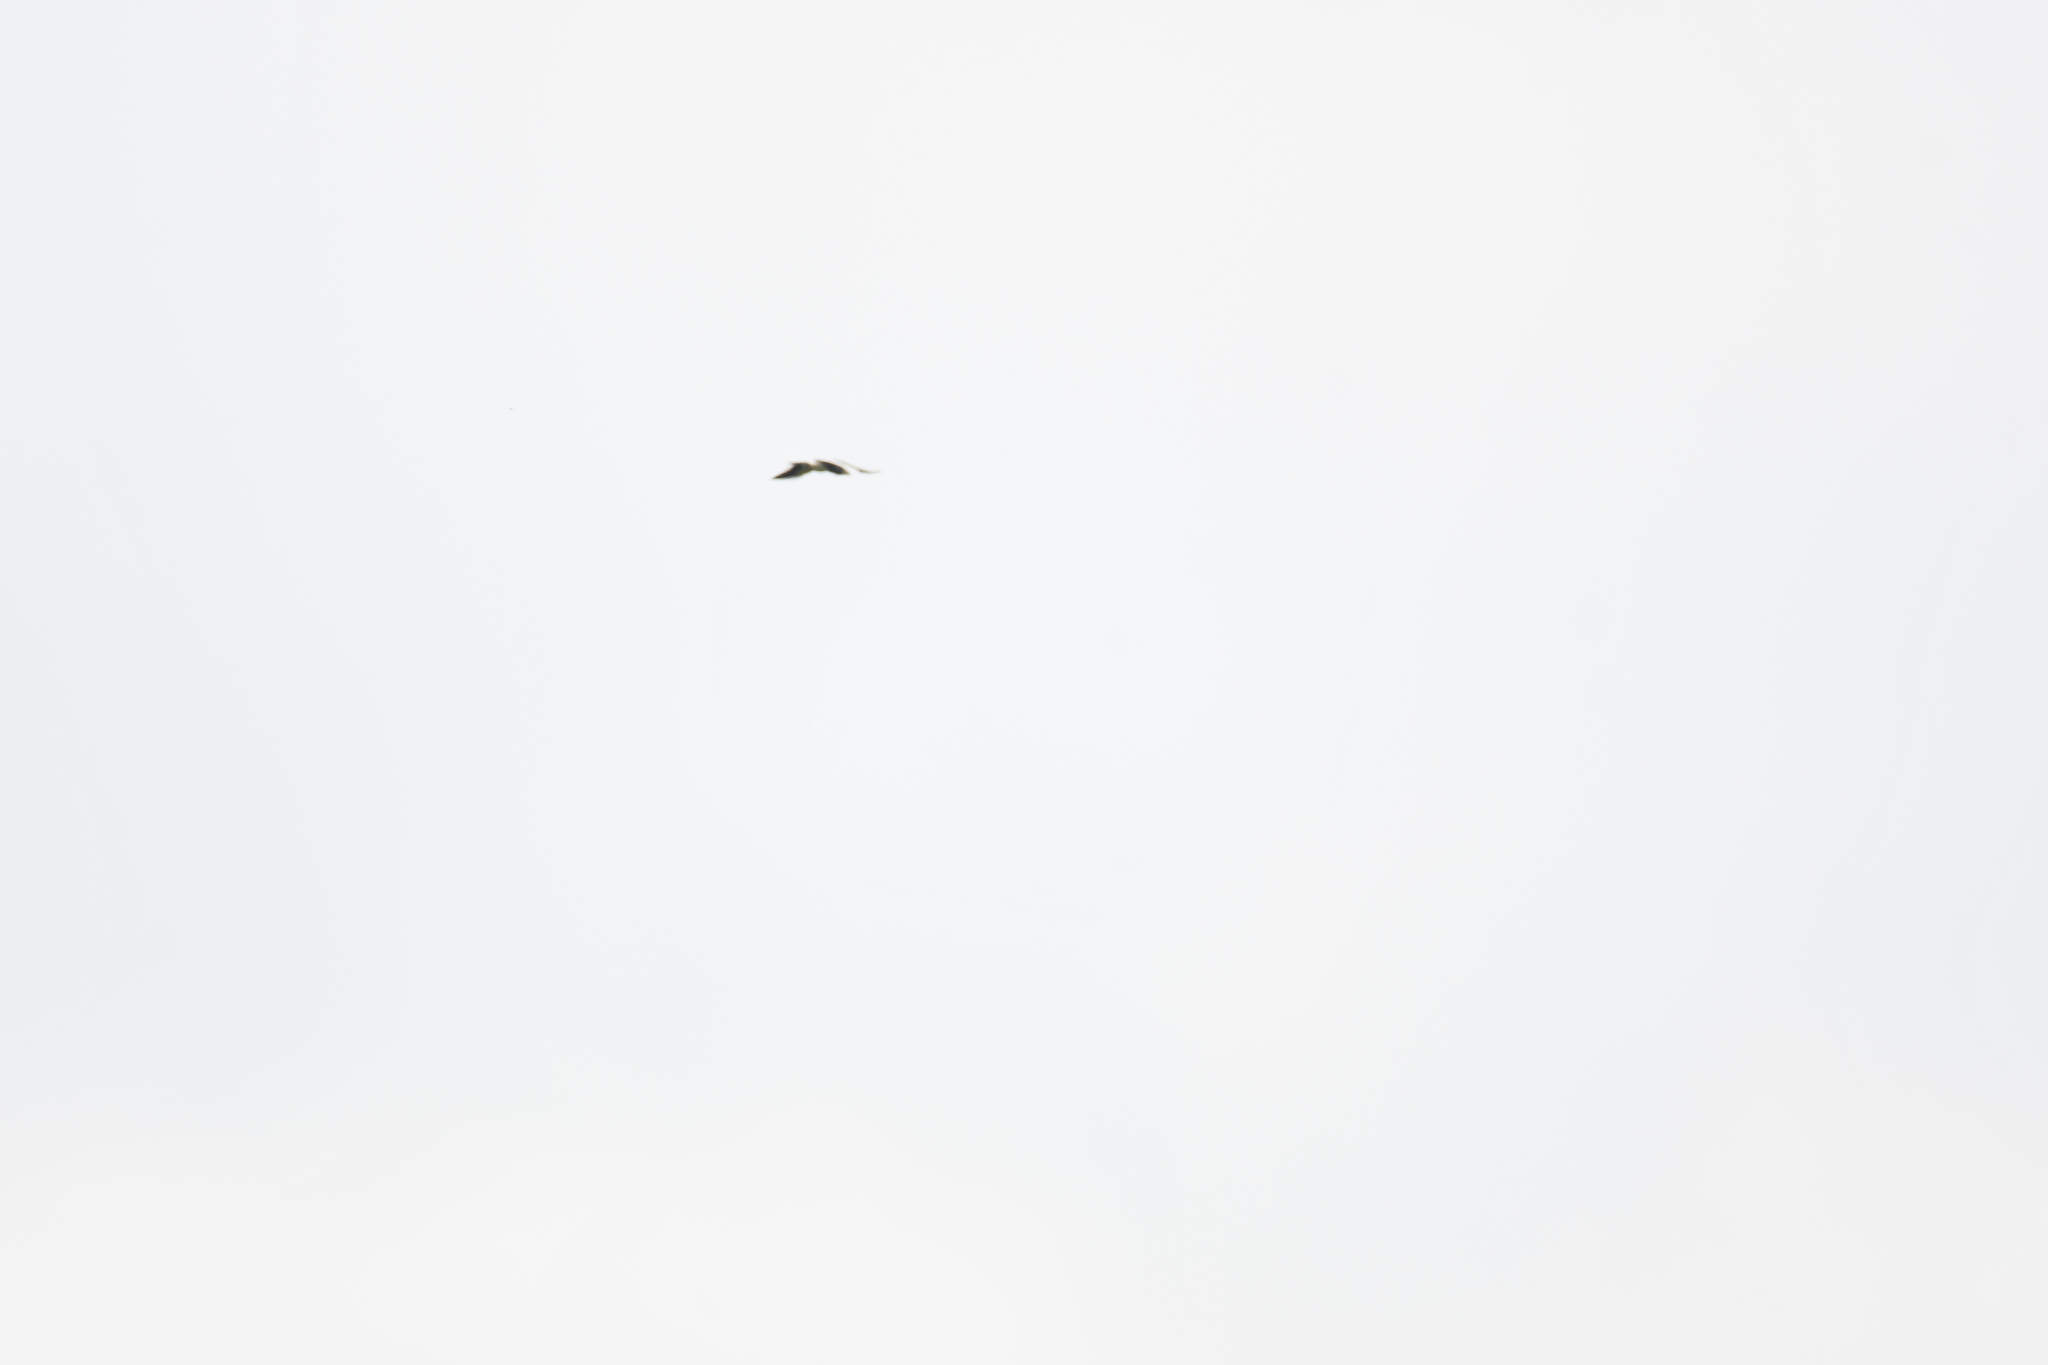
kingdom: Animalia
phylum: Chordata
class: Aves
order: Bucerotiformes
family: Bucerotidae
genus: Bycanistes
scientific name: Bycanistes fistulator
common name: Piping hornbill
